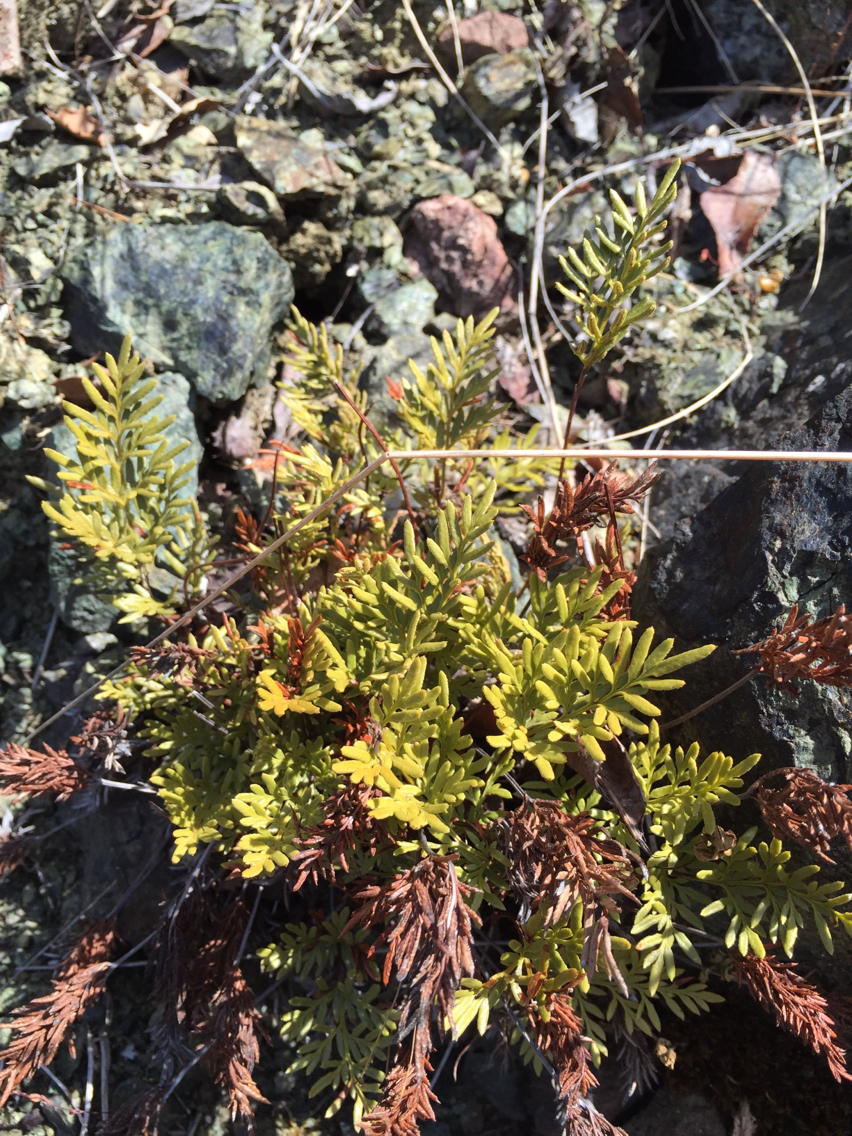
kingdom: Plantae
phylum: Tracheophyta
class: Polypodiopsida
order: Polypodiales
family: Pteridaceae
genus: Aspidotis
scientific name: Aspidotis densa
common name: Indian's dream
